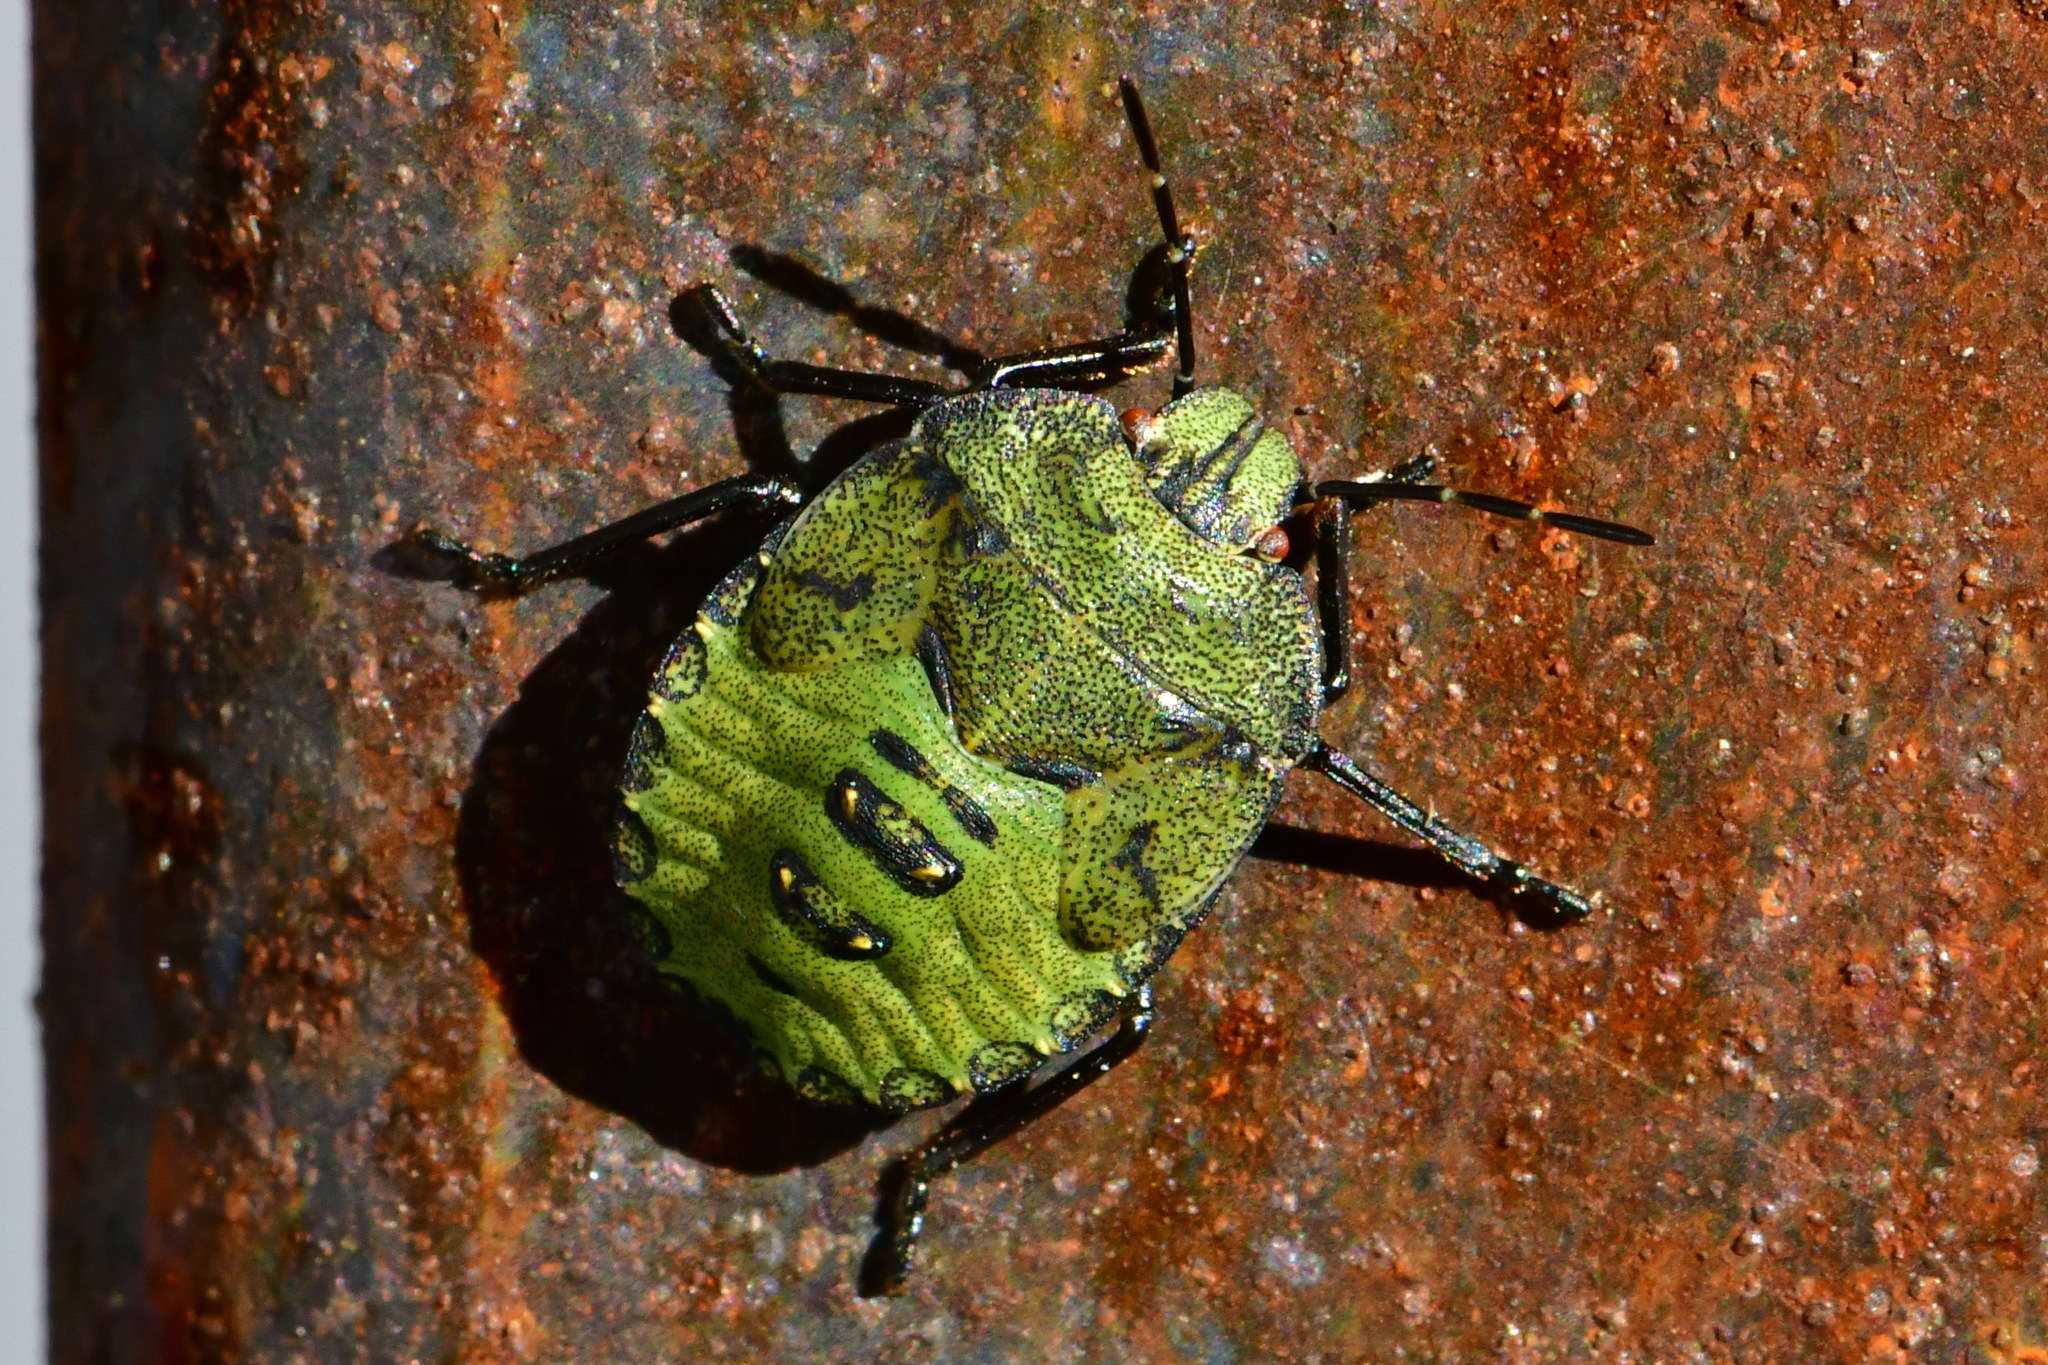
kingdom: Animalia
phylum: Arthropoda
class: Insecta
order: Hemiptera
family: Pentatomidae
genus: Palomena
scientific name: Palomena prasina
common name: Green shieldbug
